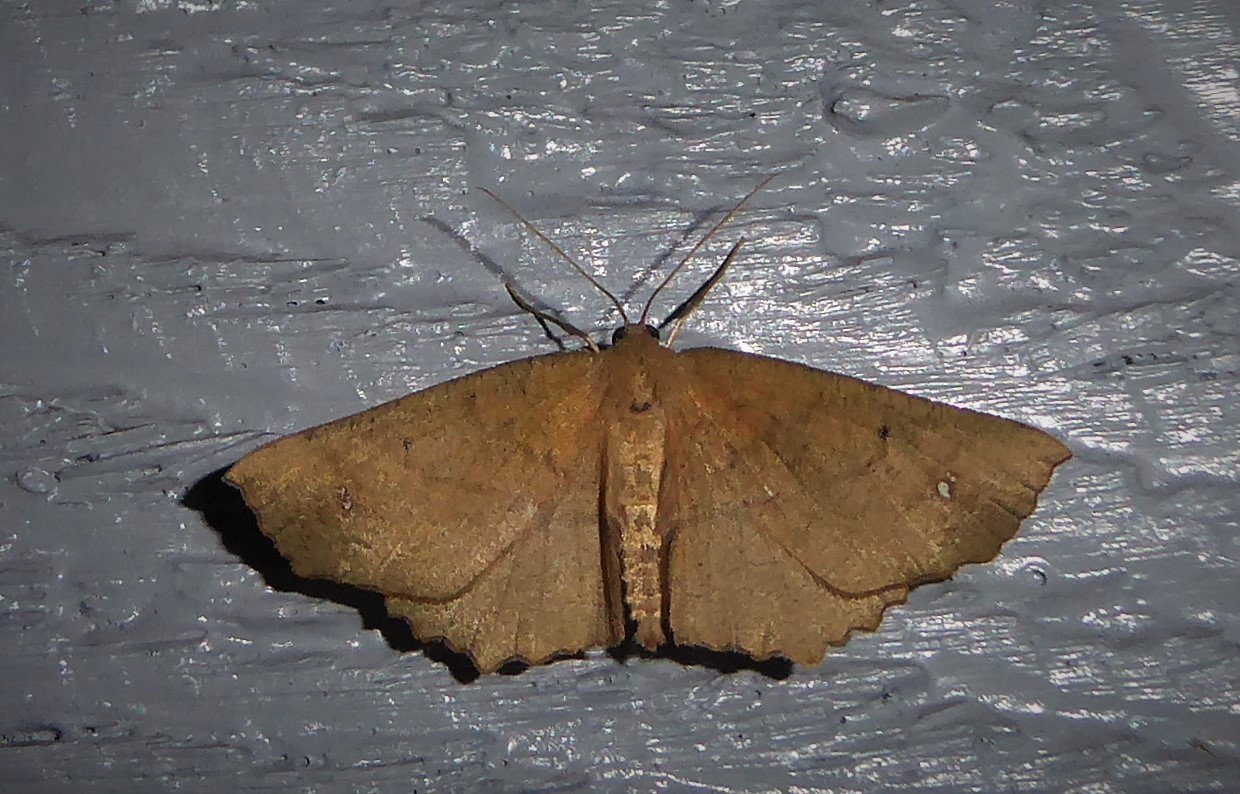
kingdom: Animalia
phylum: Arthropoda
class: Insecta
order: Lepidoptera
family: Geometridae
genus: Xyridacma
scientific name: Xyridacma ustaria
